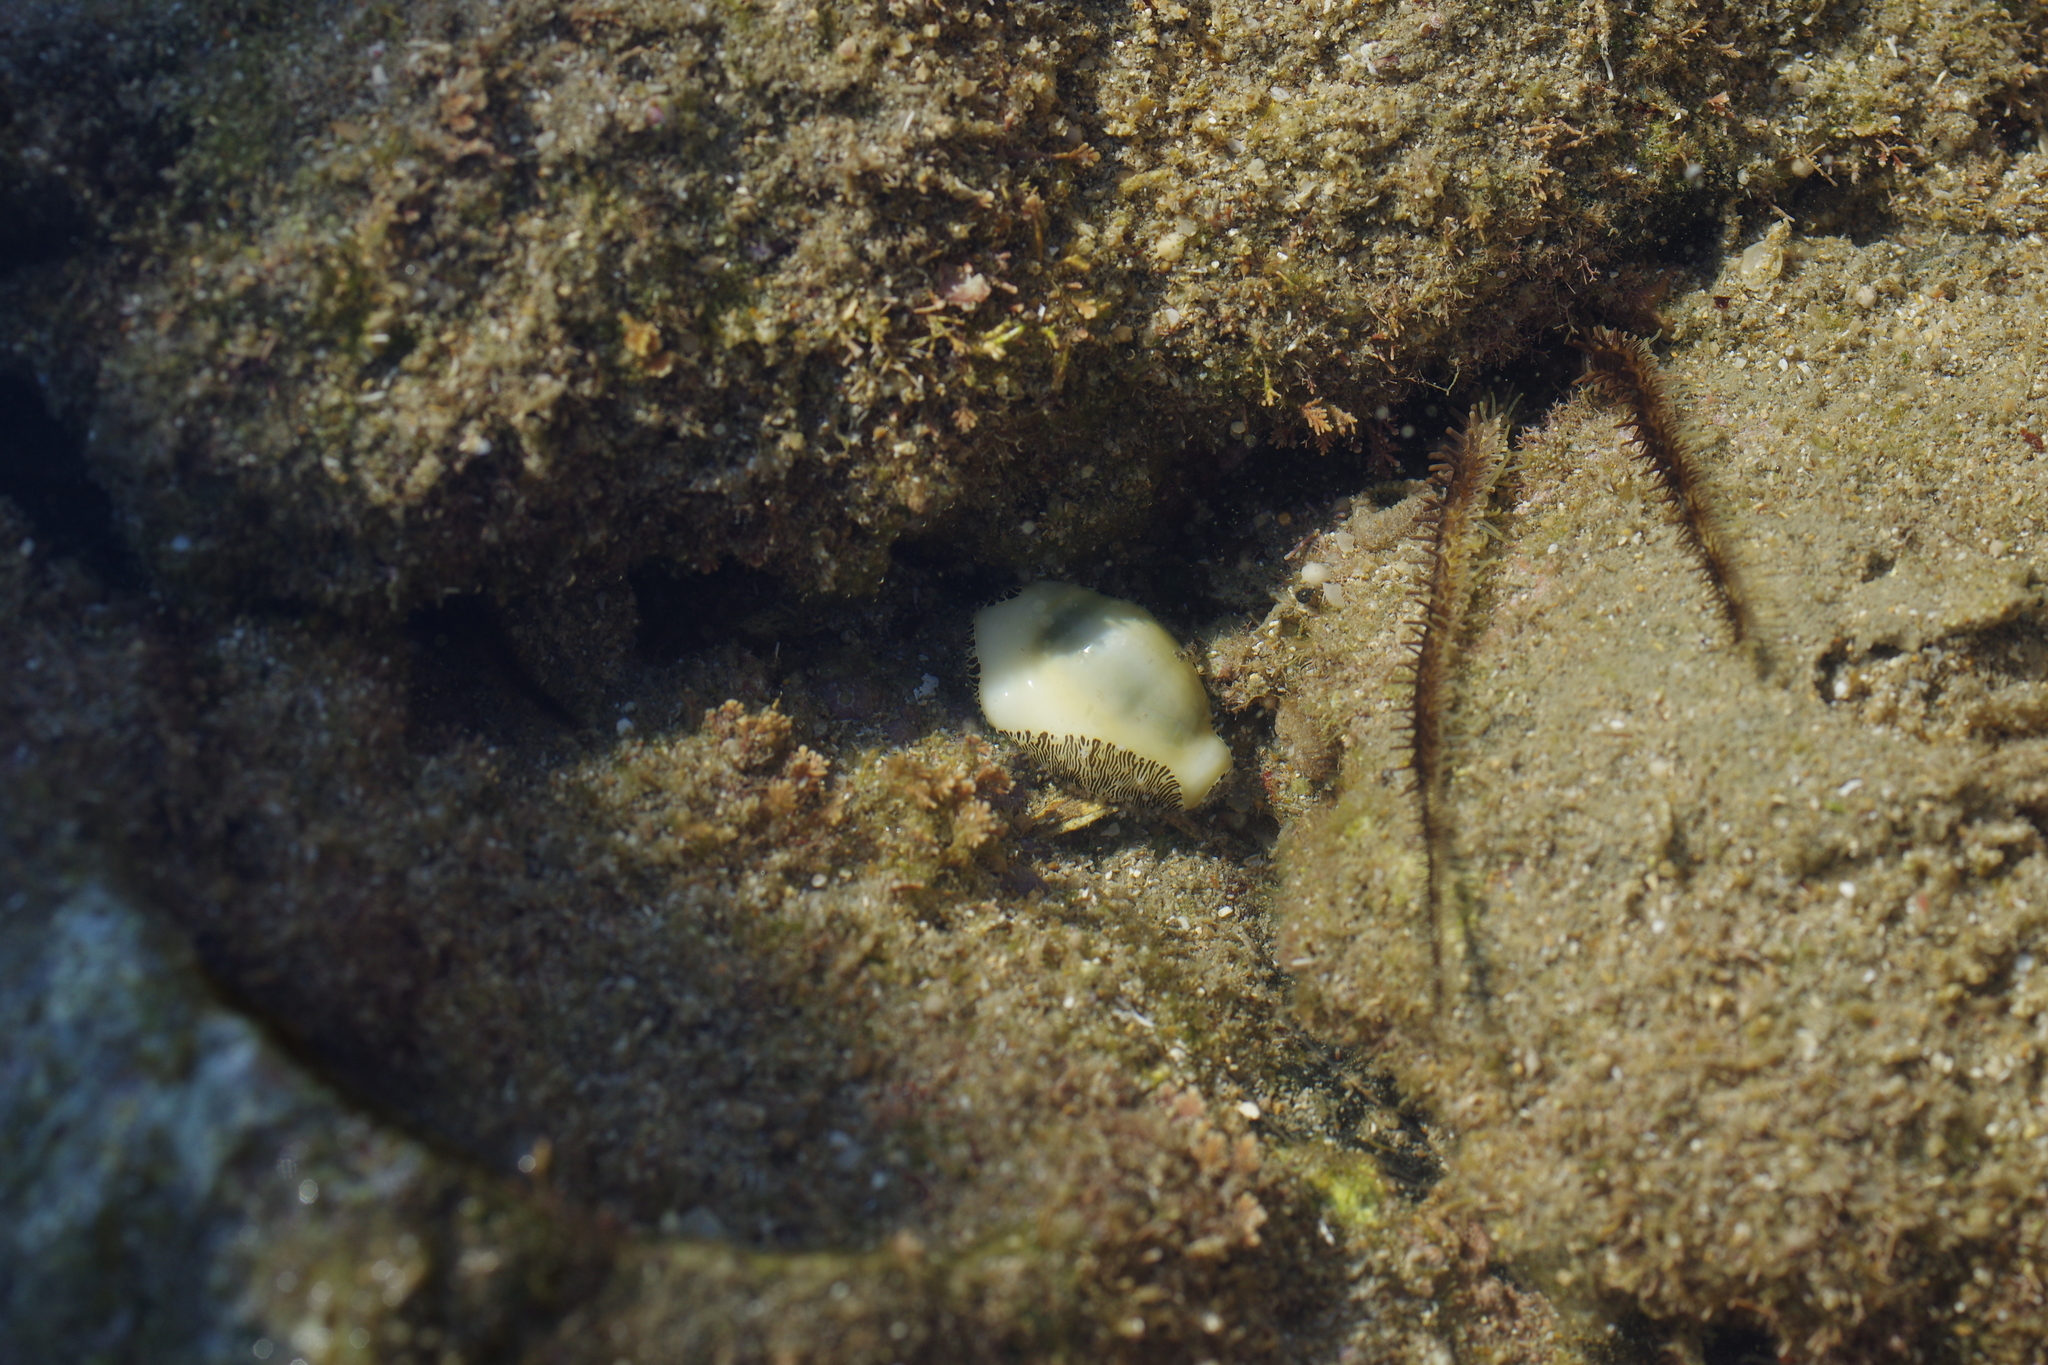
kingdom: Animalia
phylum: Mollusca
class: Gastropoda
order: Littorinimorpha
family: Cypraeidae
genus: Monetaria
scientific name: Monetaria moneta
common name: Money cowrie
